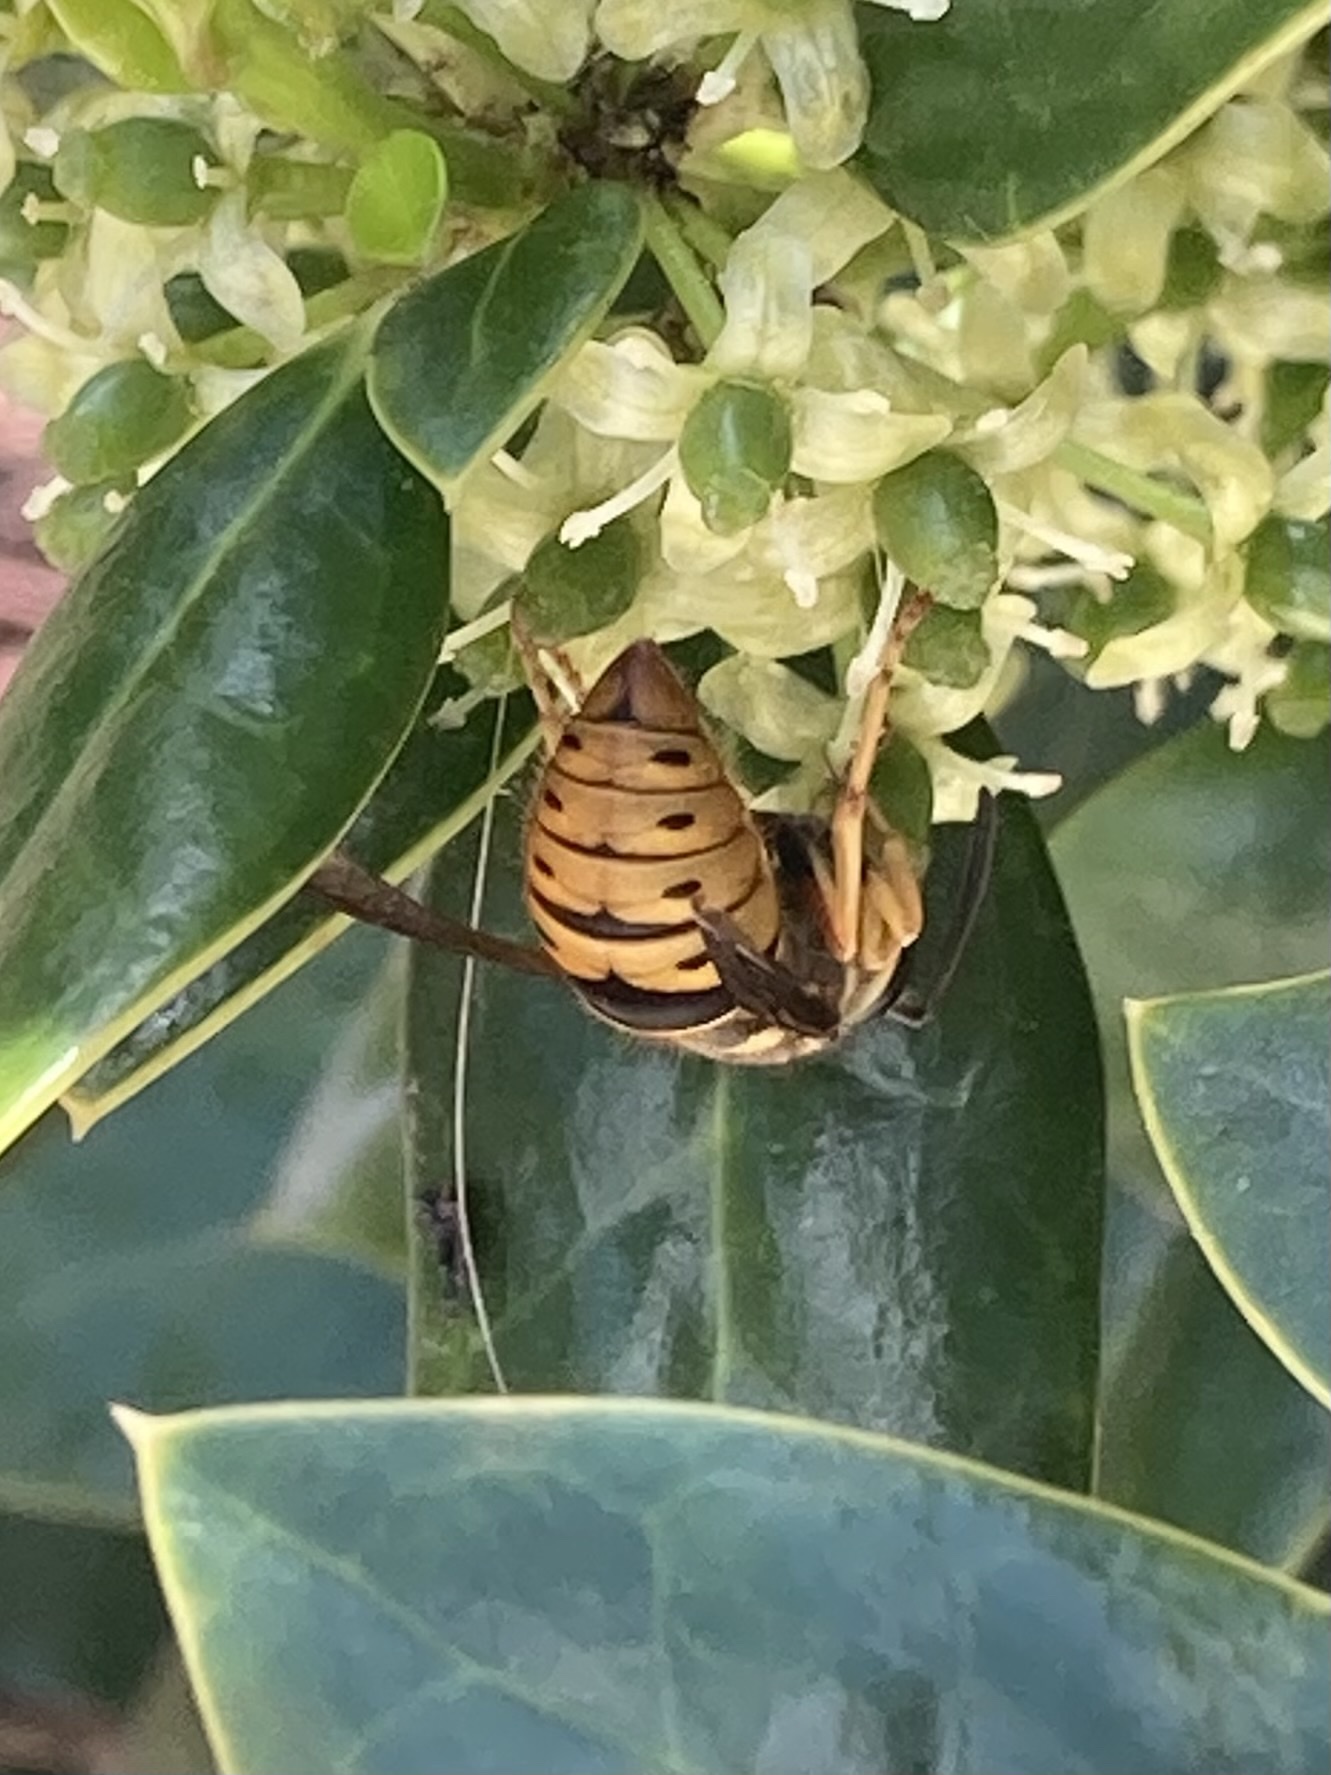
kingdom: Animalia
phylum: Arthropoda
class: Insecta
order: Hymenoptera
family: Vespidae
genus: Vespula
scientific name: Vespula maculifrons
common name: Eastern yellowjacket
